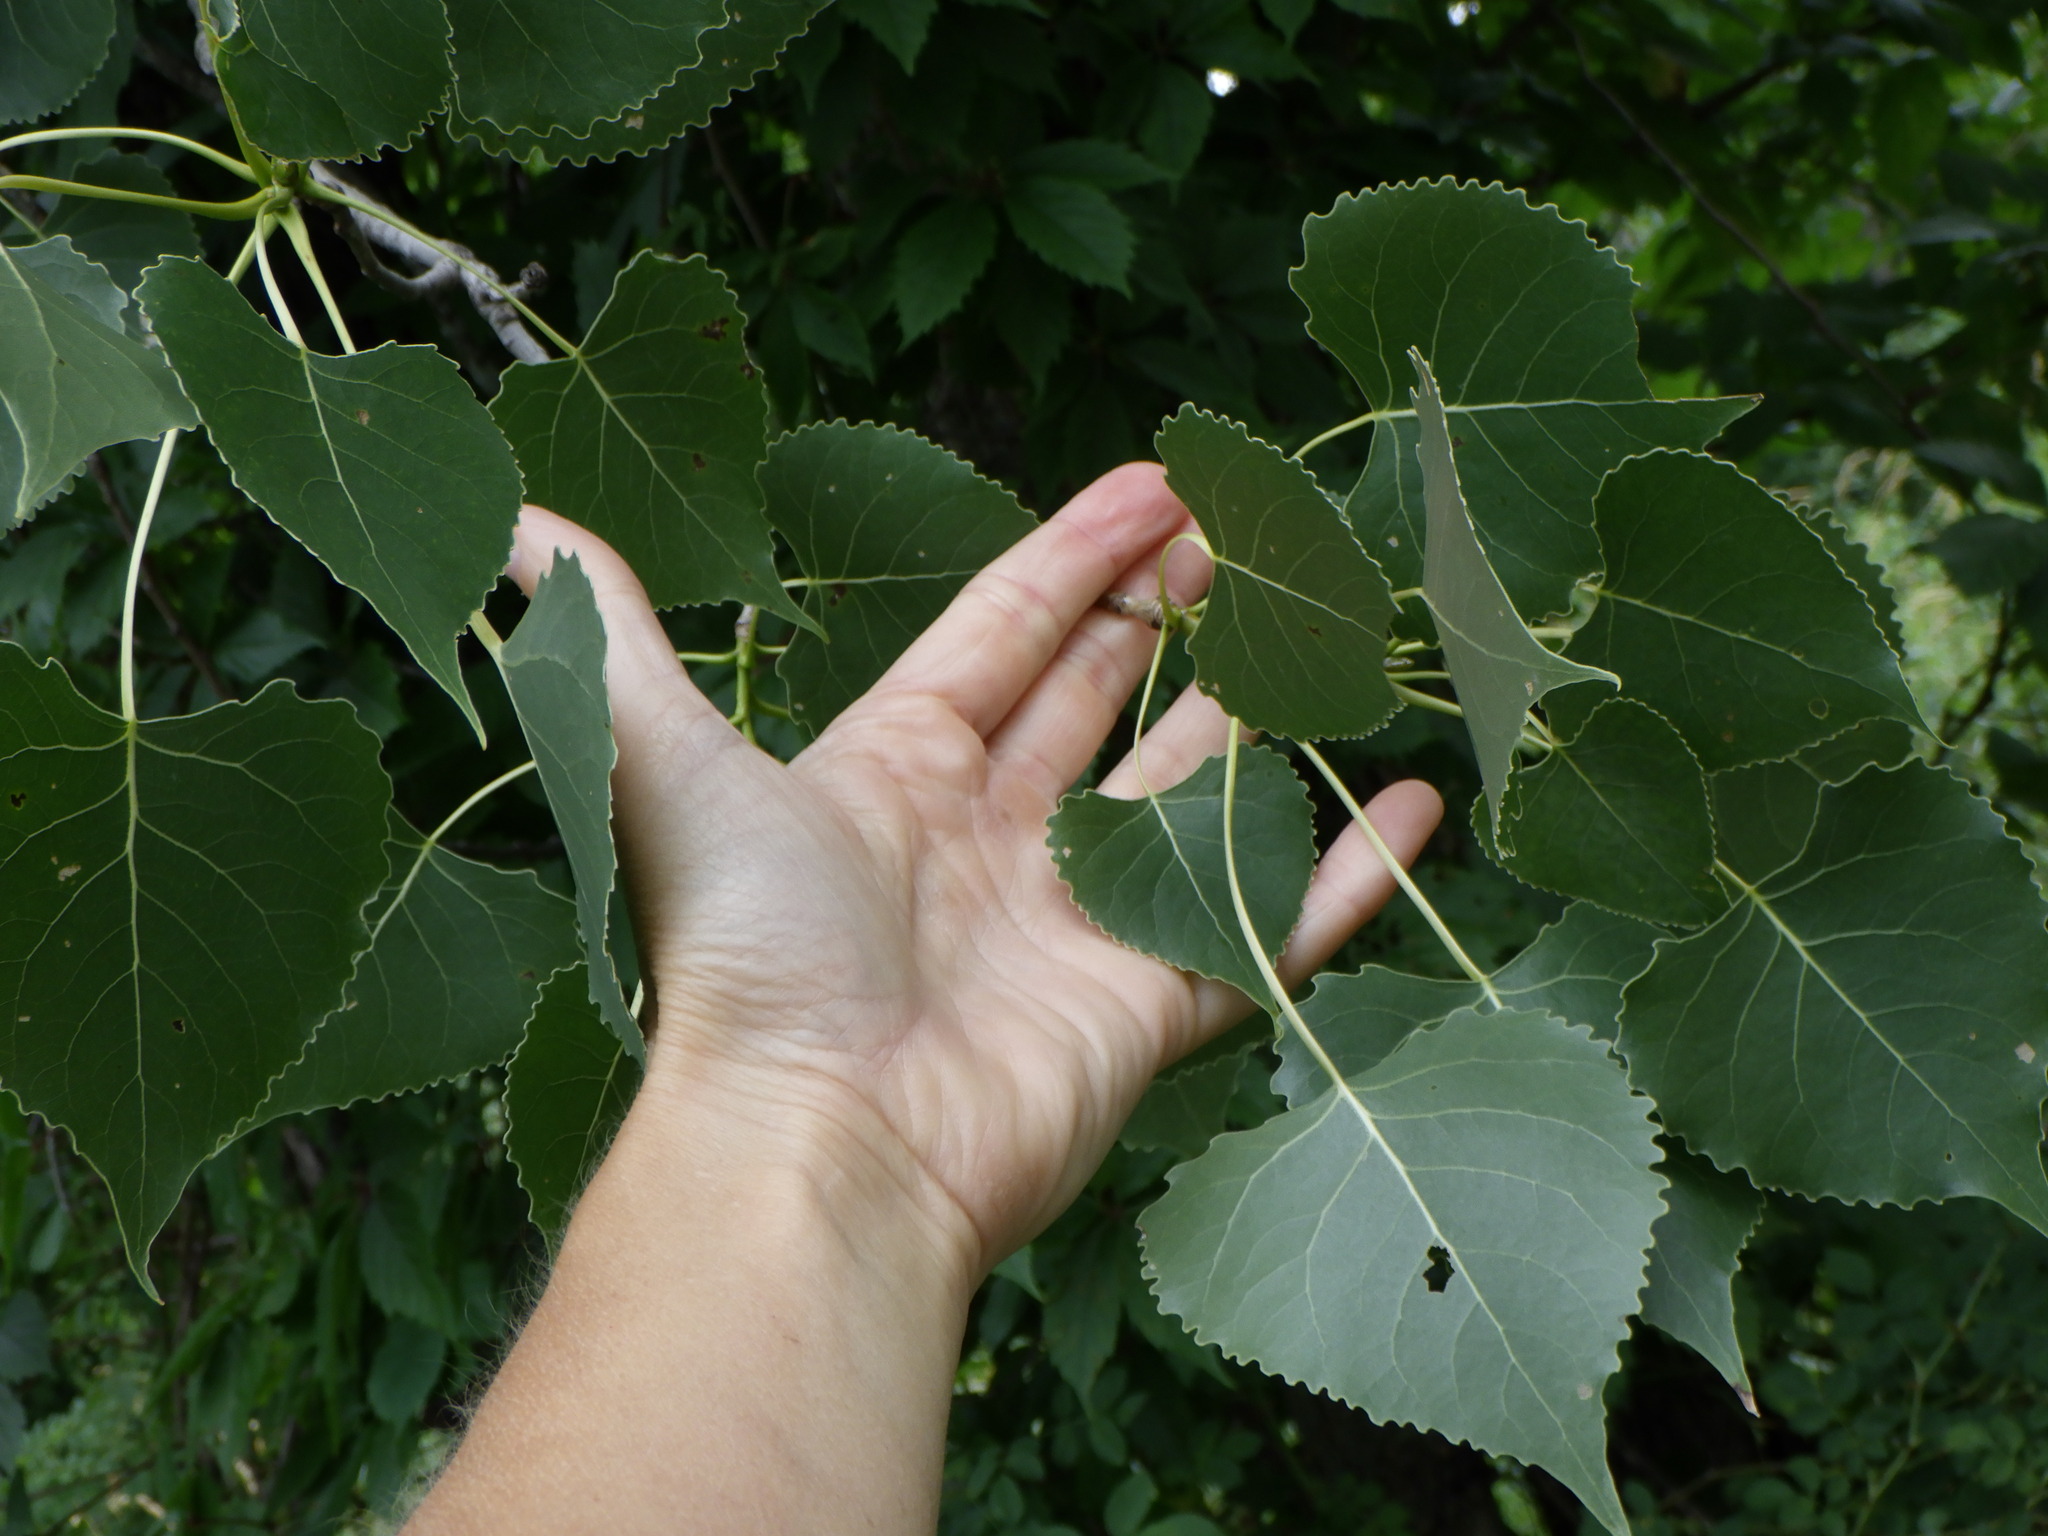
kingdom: Plantae
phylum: Tracheophyta
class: Magnoliopsida
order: Malpighiales
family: Salicaceae
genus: Populus
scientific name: Populus deltoides
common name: Eastern cottonwood
